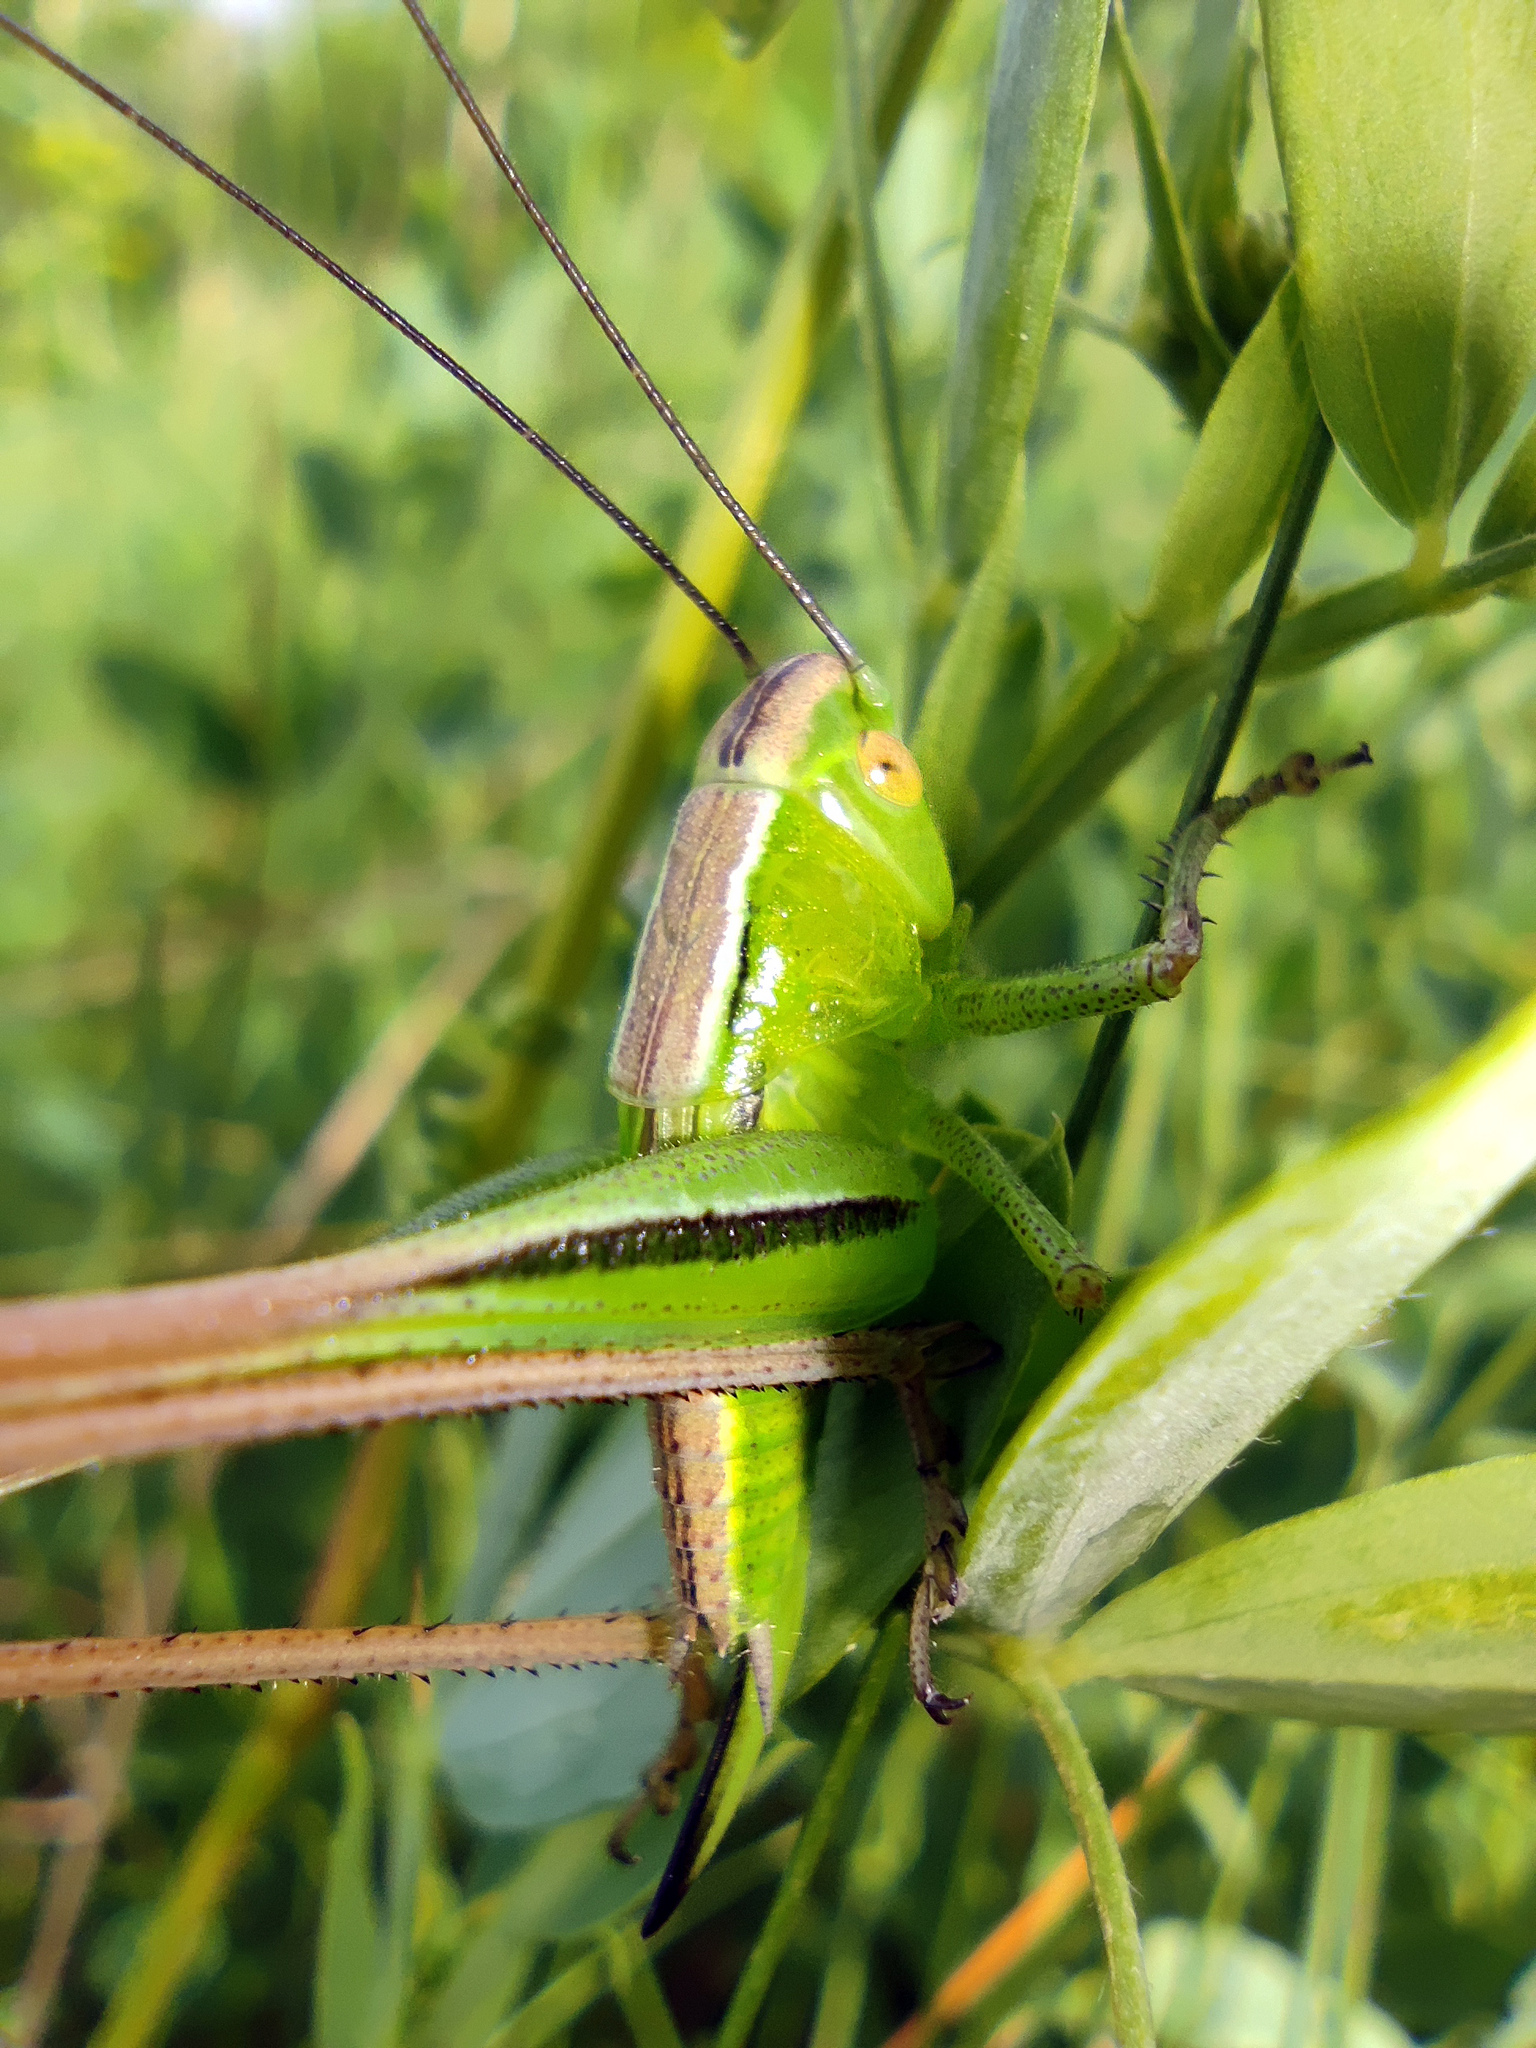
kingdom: Animalia
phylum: Arthropoda
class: Insecta
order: Orthoptera
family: Tettigoniidae
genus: Bicolorana
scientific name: Bicolorana bicolor
